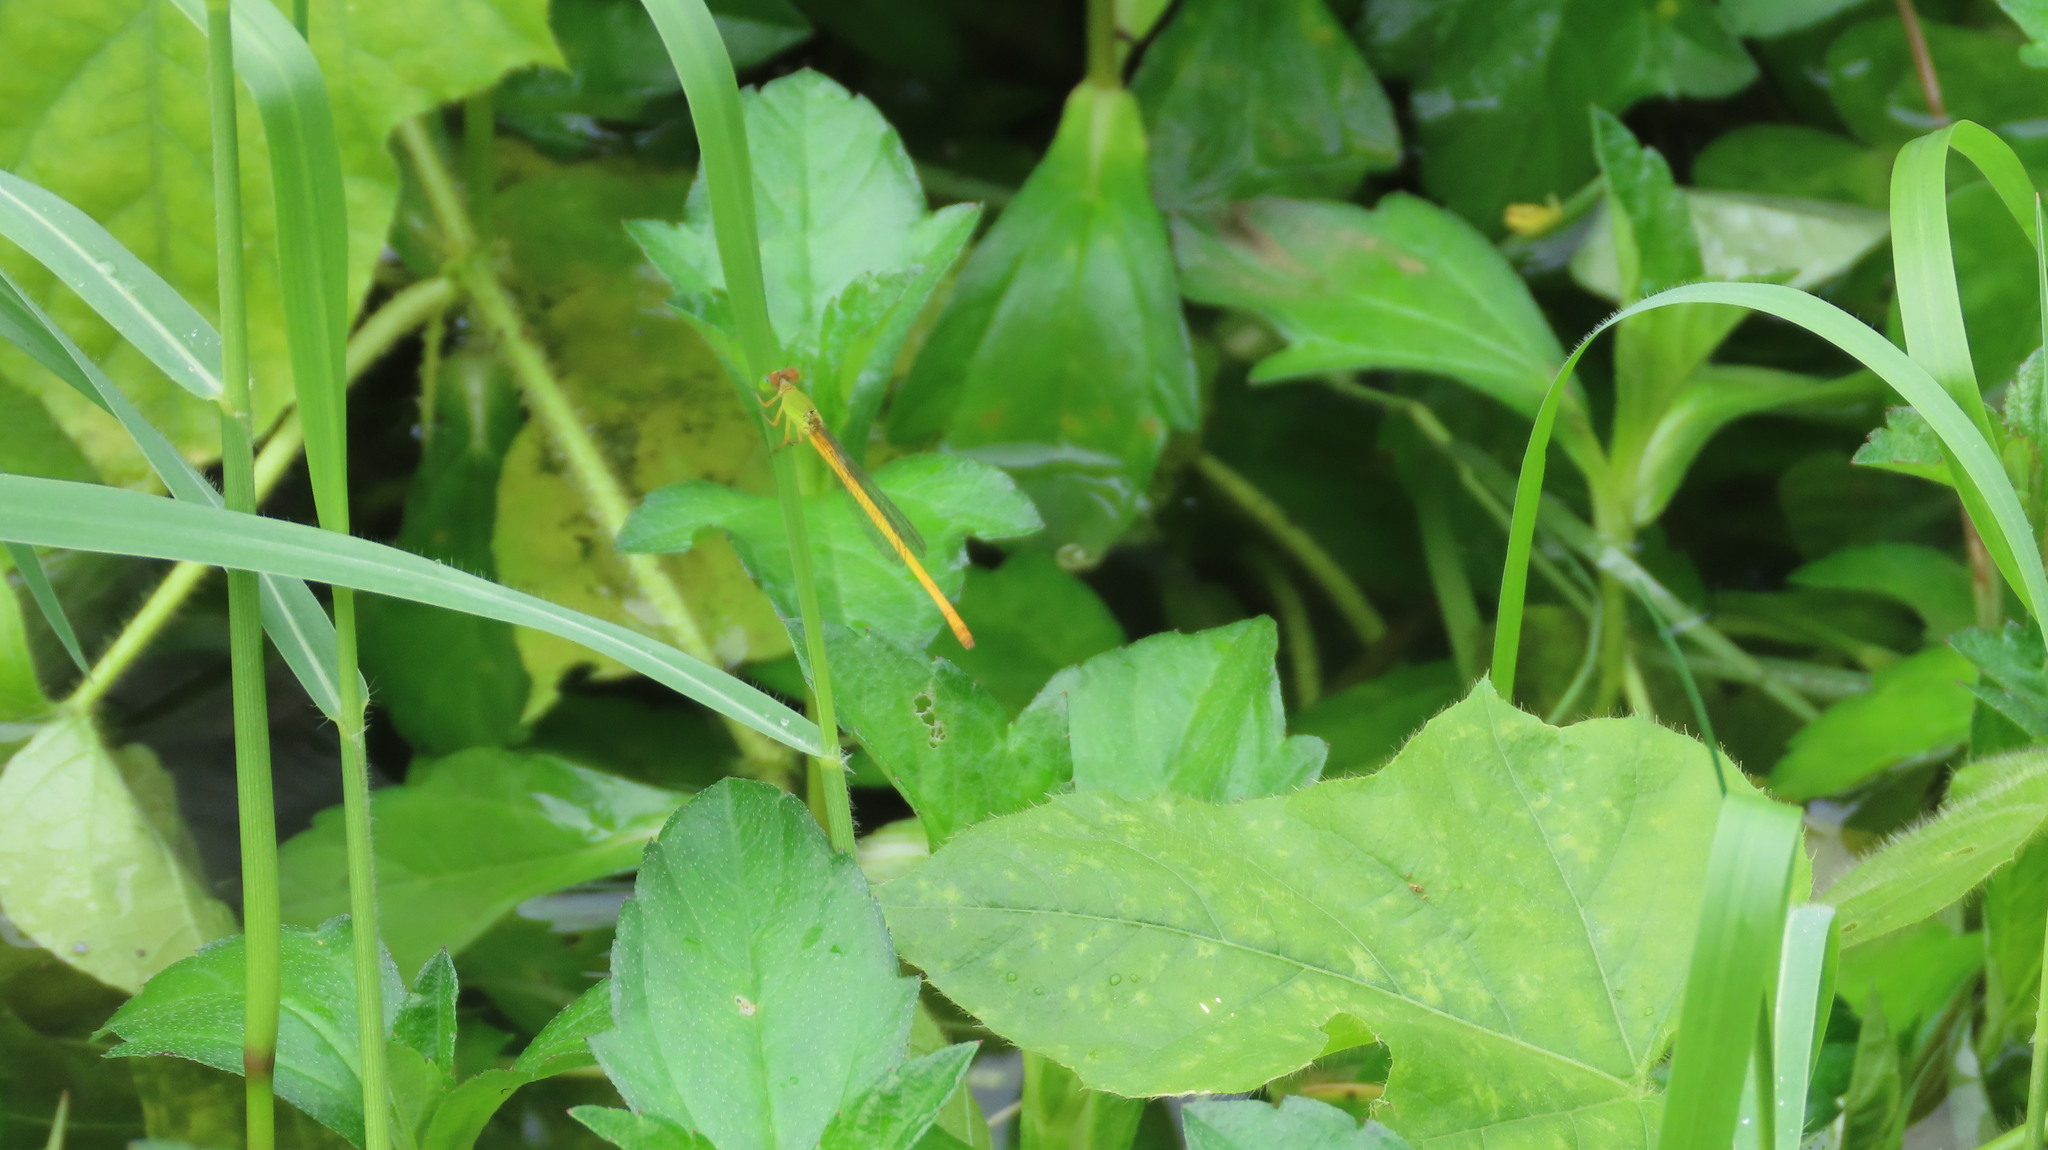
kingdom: Animalia
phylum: Arthropoda
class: Insecta
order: Odonata
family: Coenagrionidae
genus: Ceriagrion
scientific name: Ceriagrion coromandelianum
